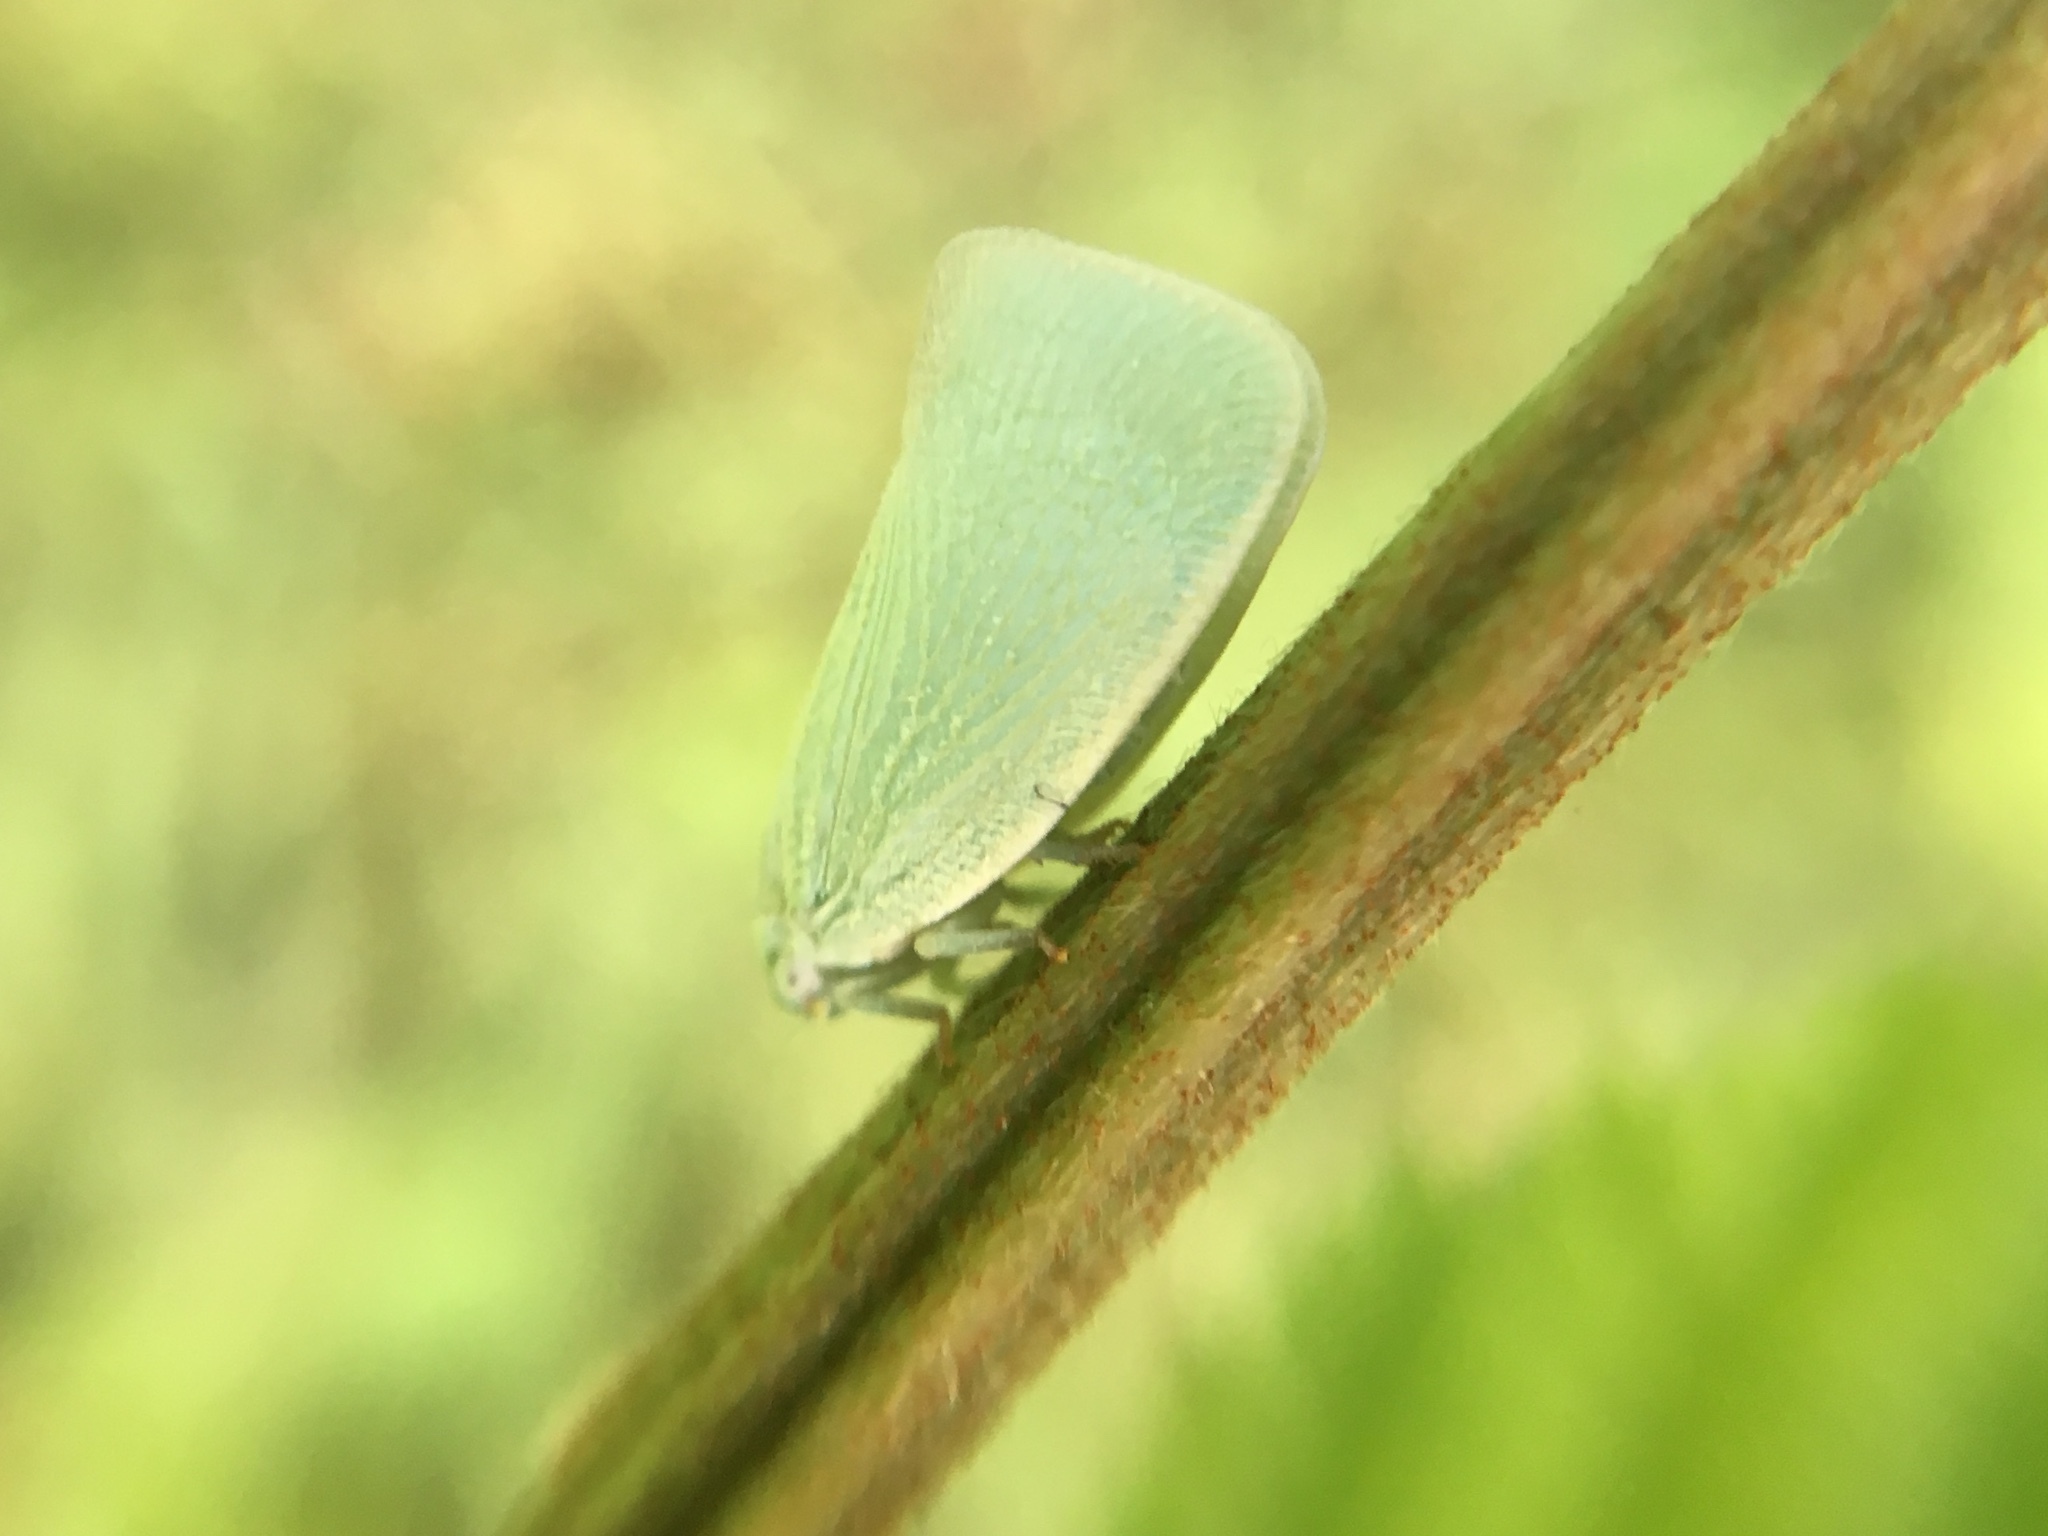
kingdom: Animalia
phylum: Arthropoda
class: Insecta
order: Hemiptera
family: Flatidae
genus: Flatormenis
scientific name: Flatormenis proxima
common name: Northern flatid planthopper
